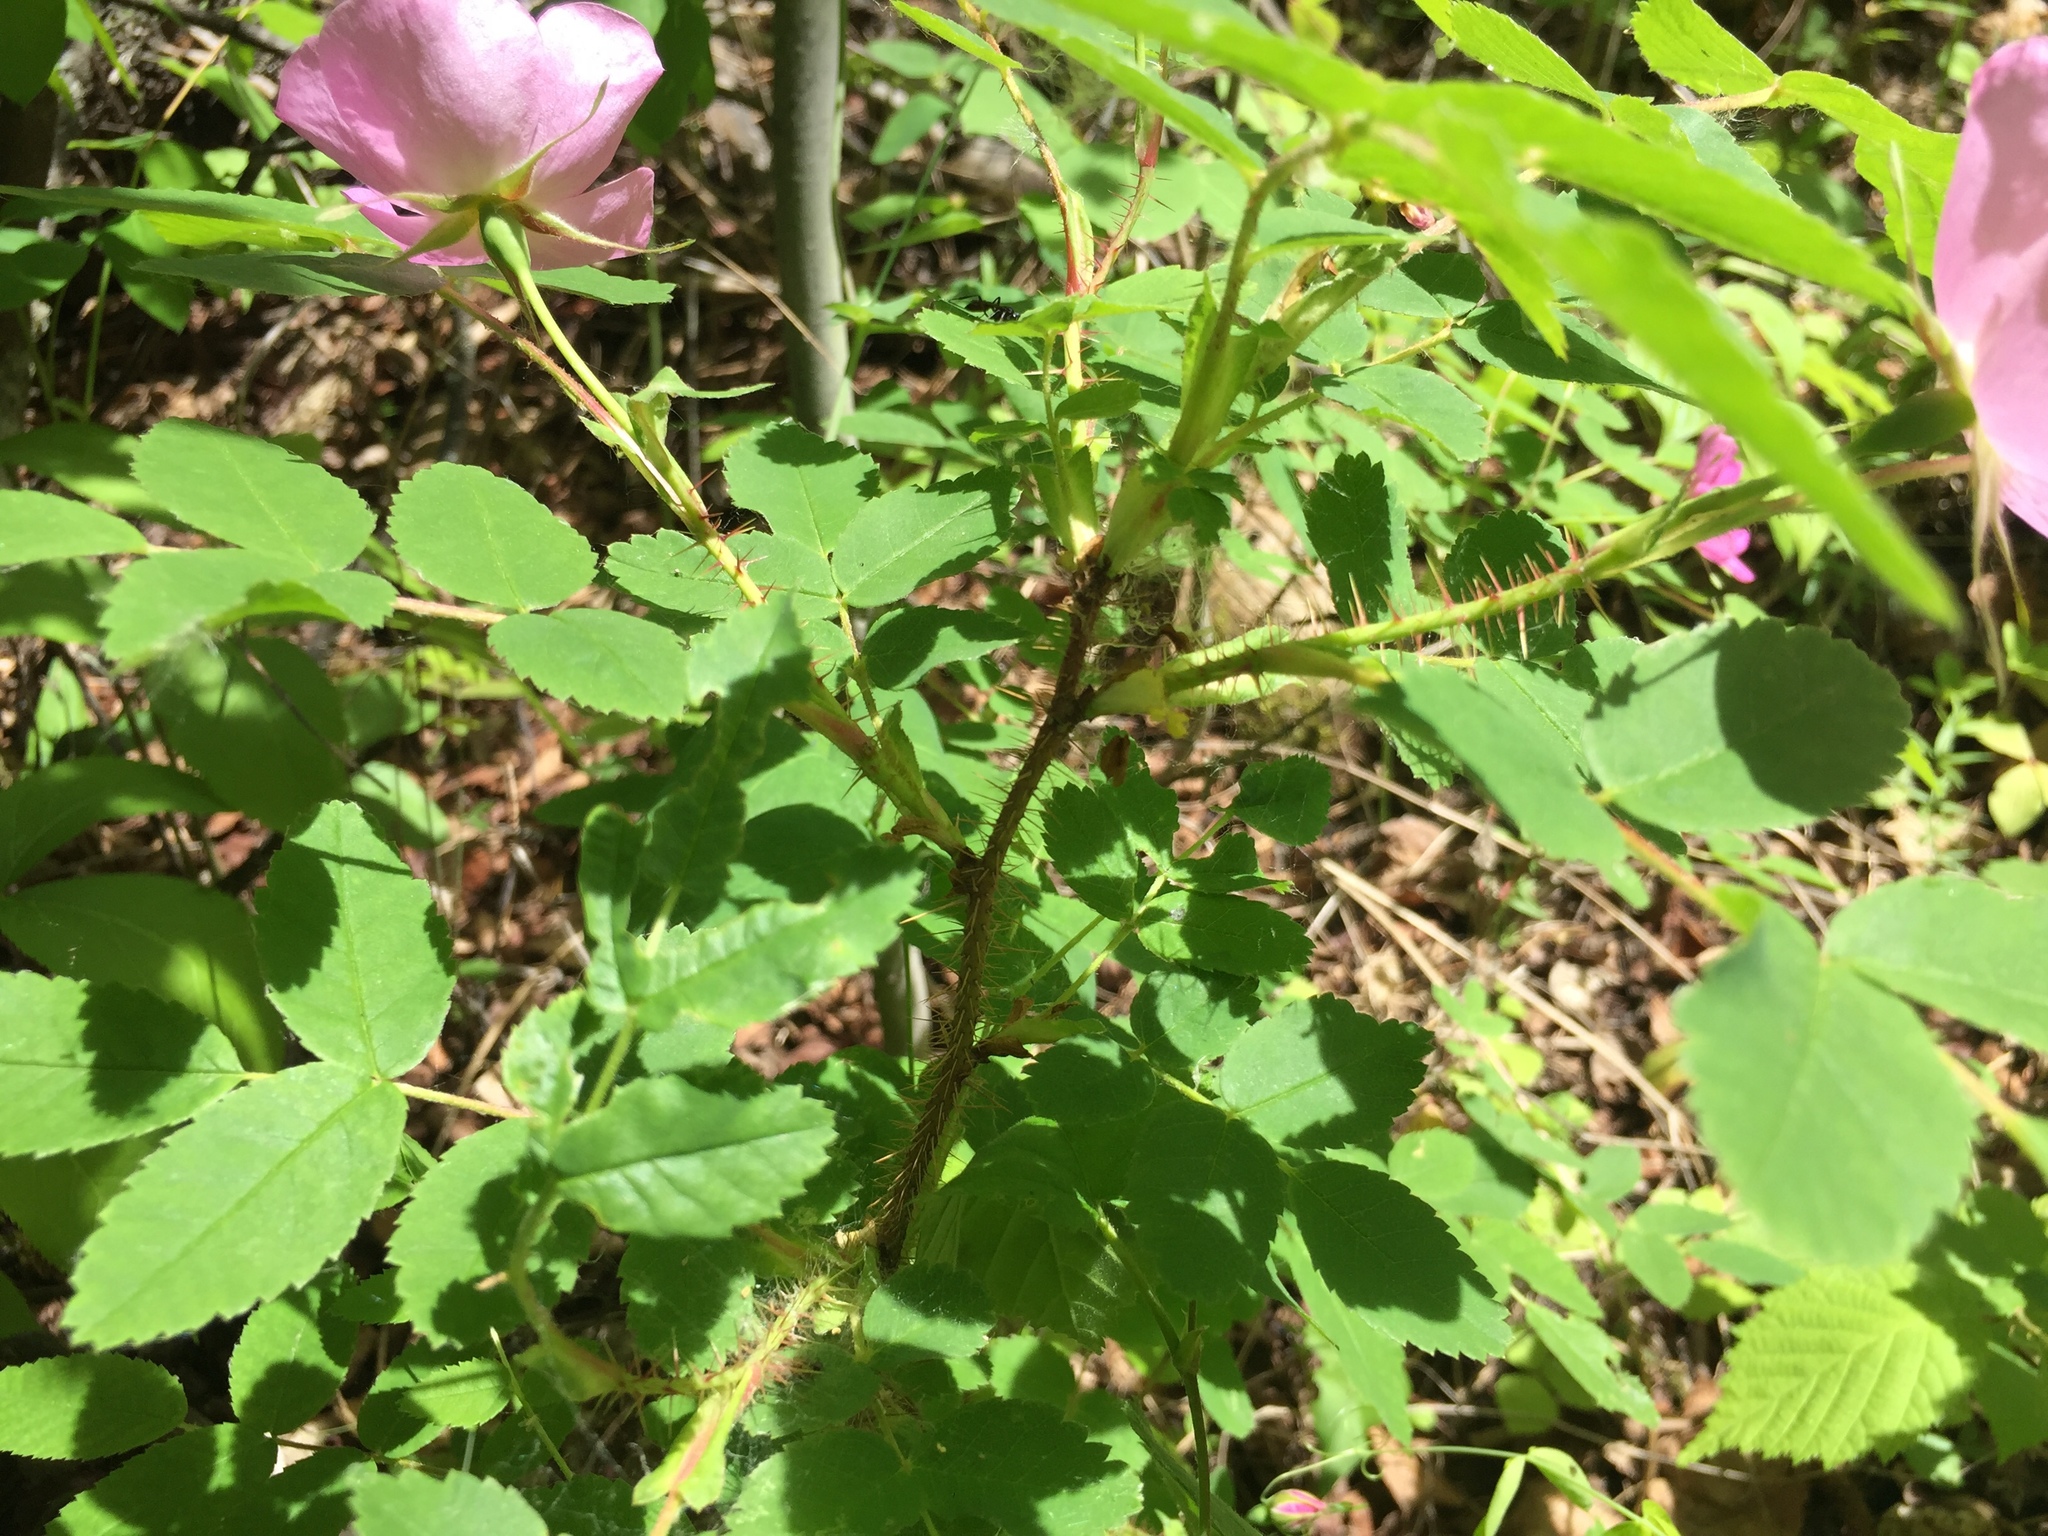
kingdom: Plantae
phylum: Tracheophyta
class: Magnoliopsida
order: Rosales
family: Rosaceae
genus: Rosa
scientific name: Rosa acicularis
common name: Prickly rose
